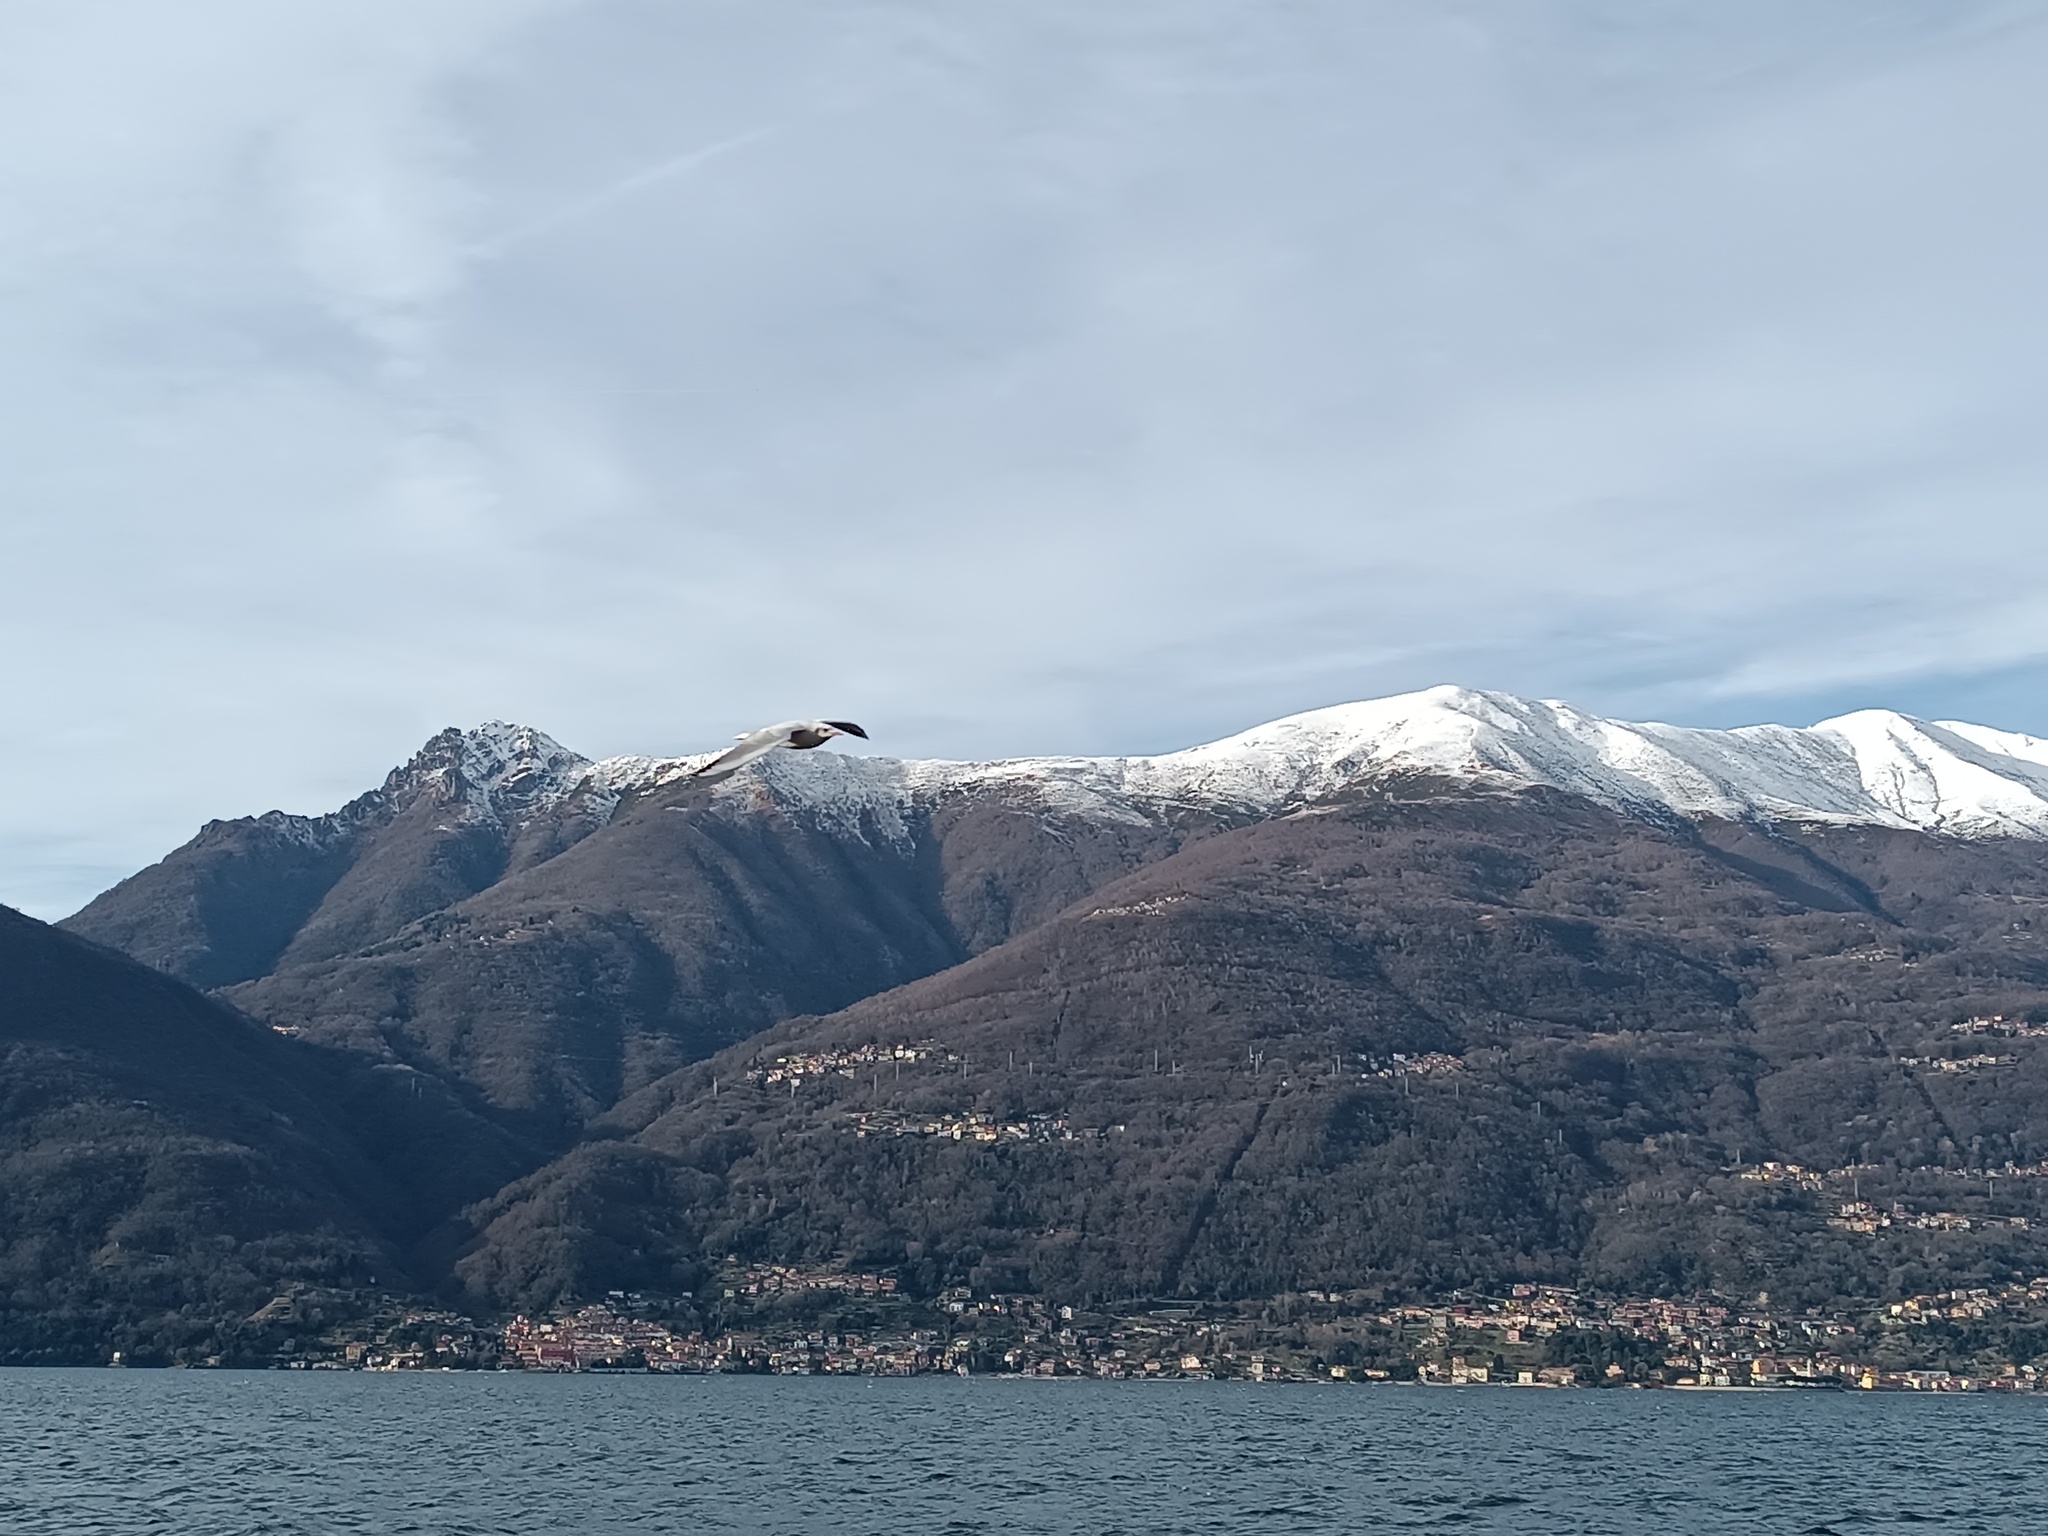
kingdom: Animalia
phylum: Chordata
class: Aves
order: Charadriiformes
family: Laridae
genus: Chroicocephalus
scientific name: Chroicocephalus ridibundus
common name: Black-headed gull
